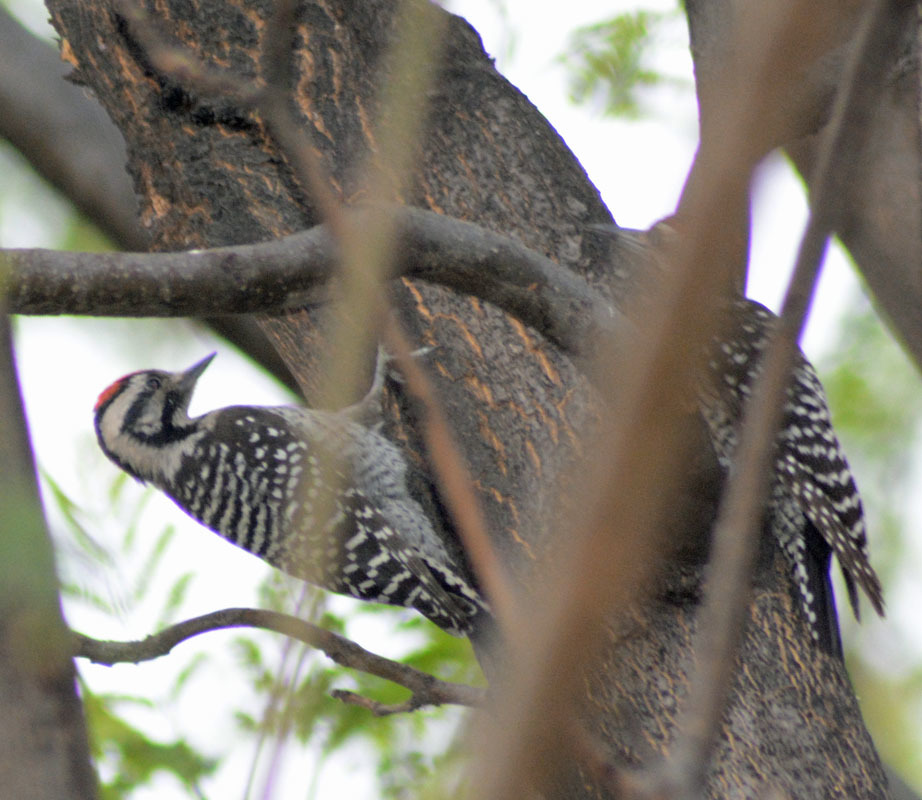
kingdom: Animalia
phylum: Chordata
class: Aves
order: Piciformes
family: Picidae
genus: Dryobates
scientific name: Dryobates scalaris
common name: Ladder-backed woodpecker
